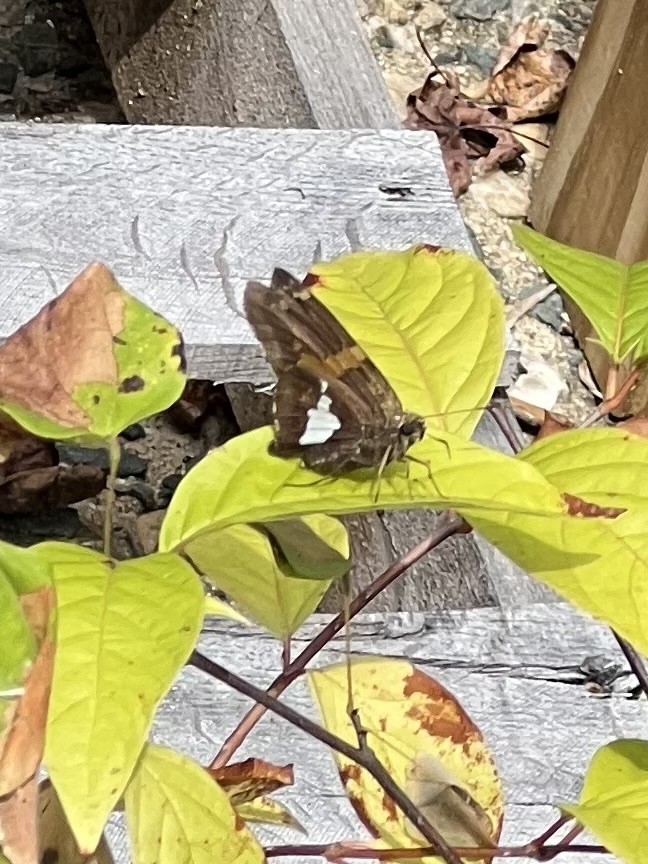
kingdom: Animalia
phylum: Arthropoda
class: Insecta
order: Lepidoptera
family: Hesperiidae
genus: Epargyreus
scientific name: Epargyreus clarus
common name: Silver-spotted skipper
